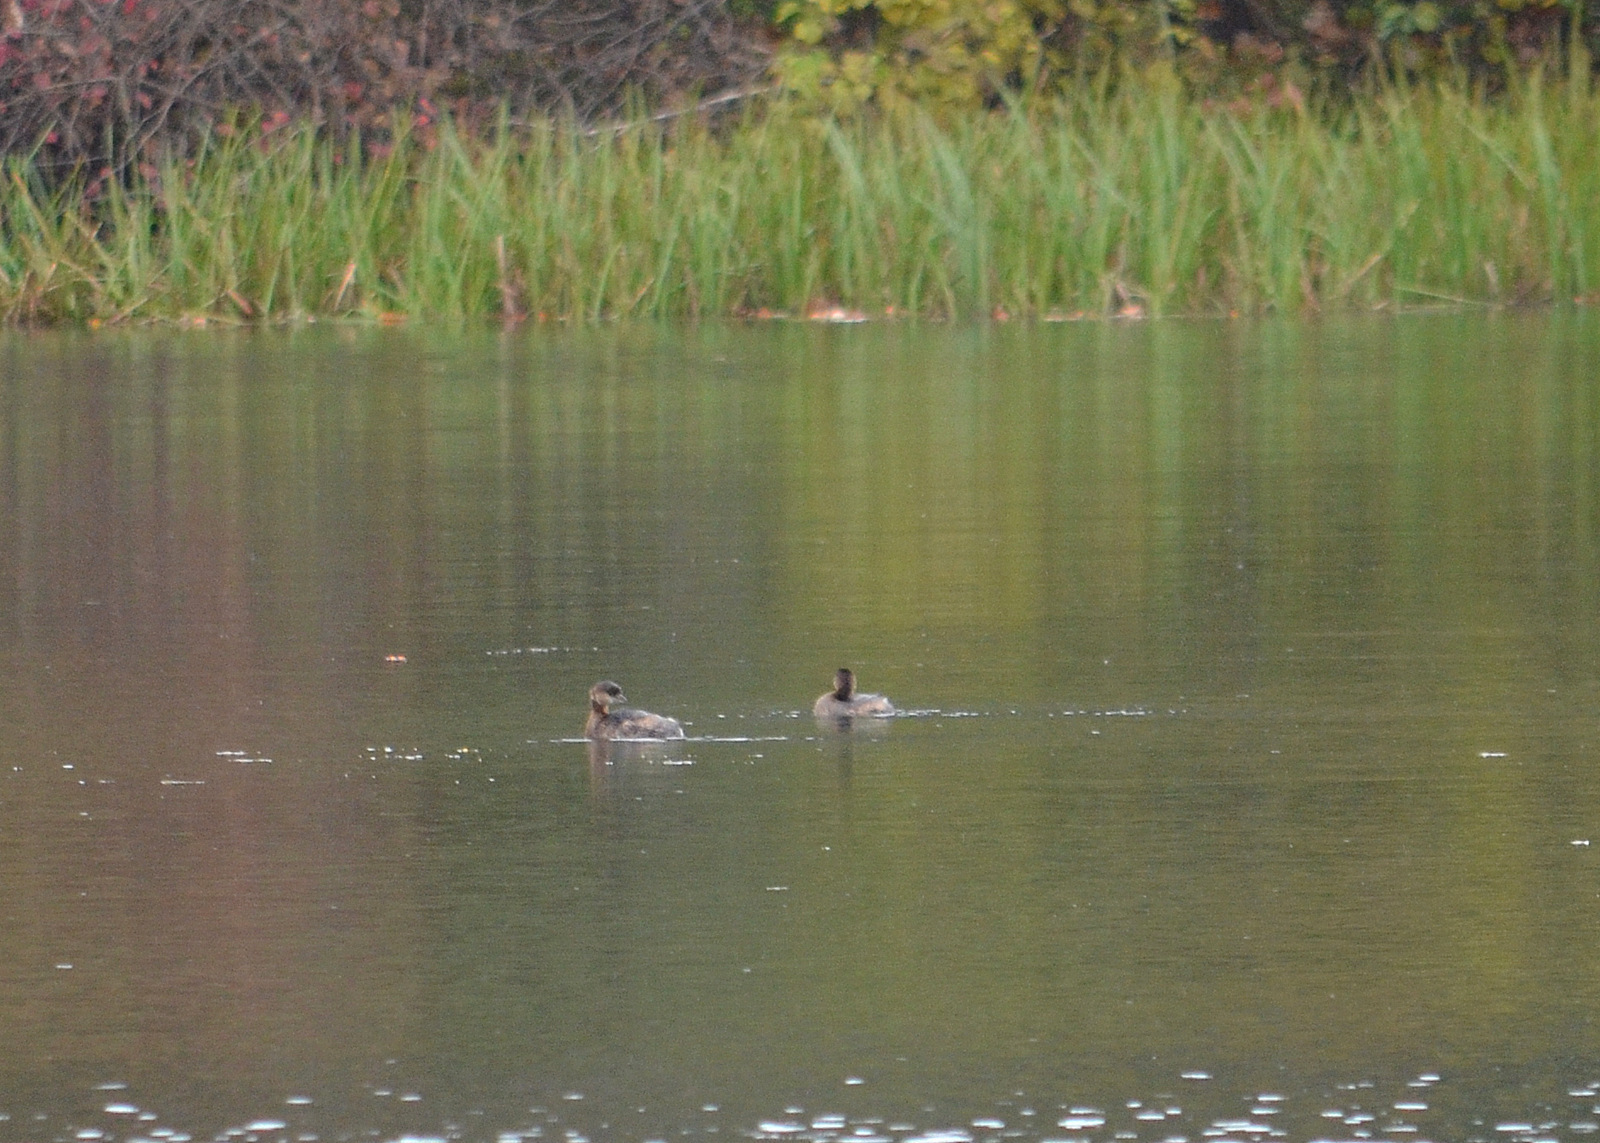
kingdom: Animalia
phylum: Chordata
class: Aves
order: Podicipediformes
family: Podicipedidae
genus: Podilymbus
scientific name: Podilymbus podiceps
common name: Pied-billed grebe
